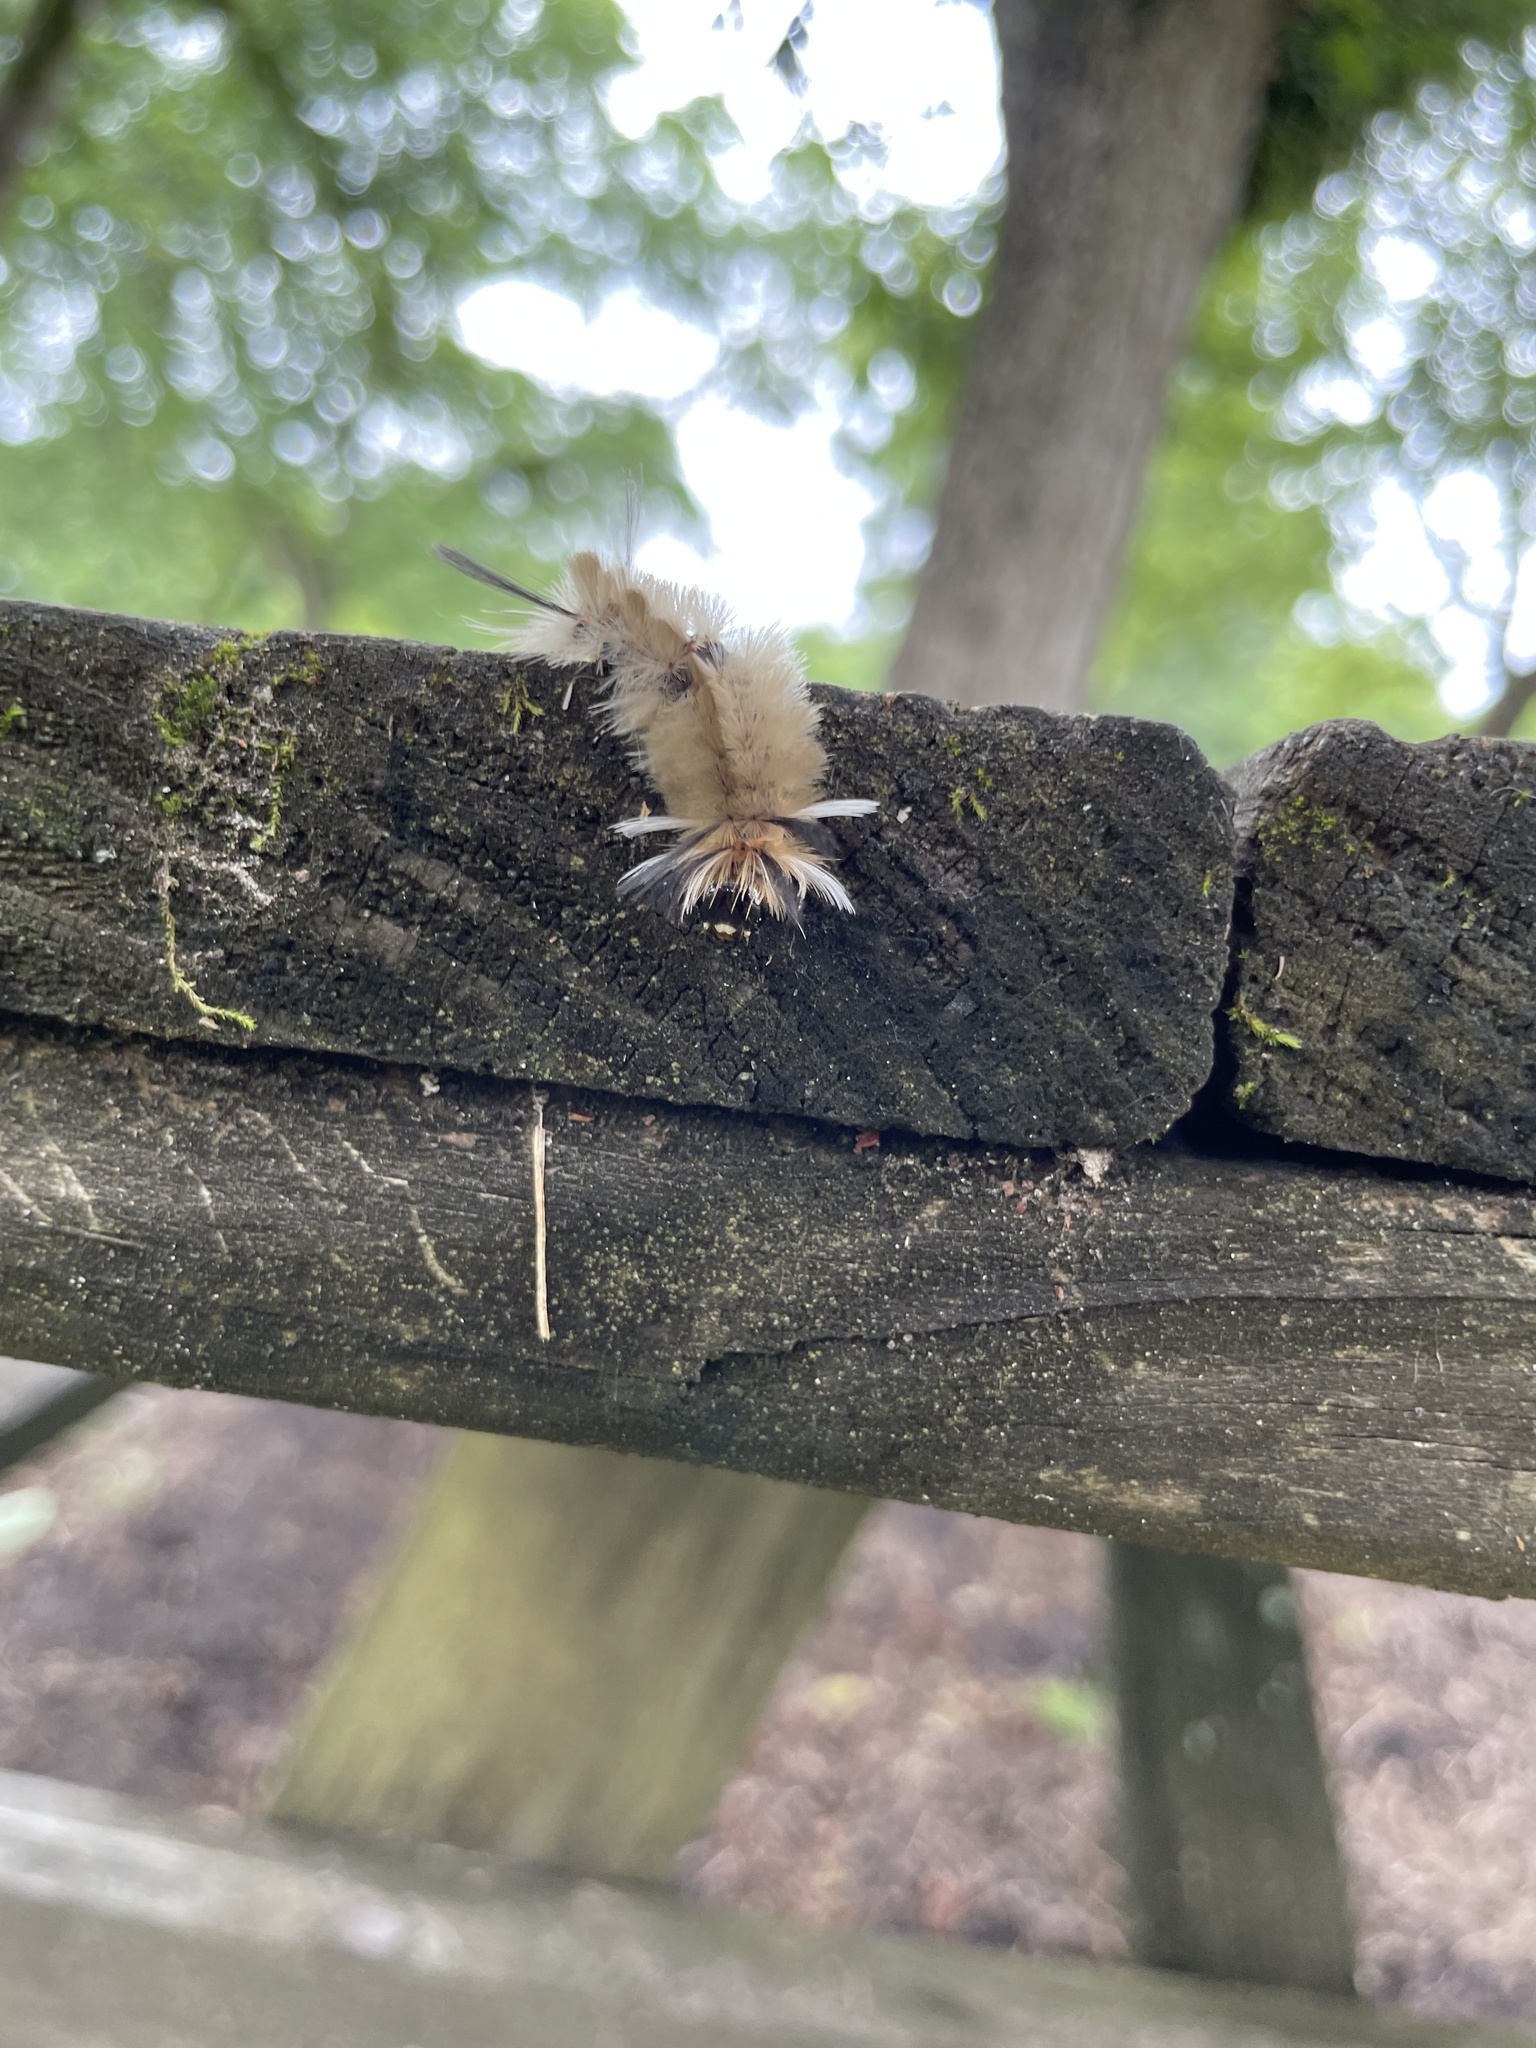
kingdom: Animalia
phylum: Arthropoda
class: Insecta
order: Lepidoptera
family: Erebidae
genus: Halysidota
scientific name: Halysidota tessellaris
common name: Banded tussock moth
